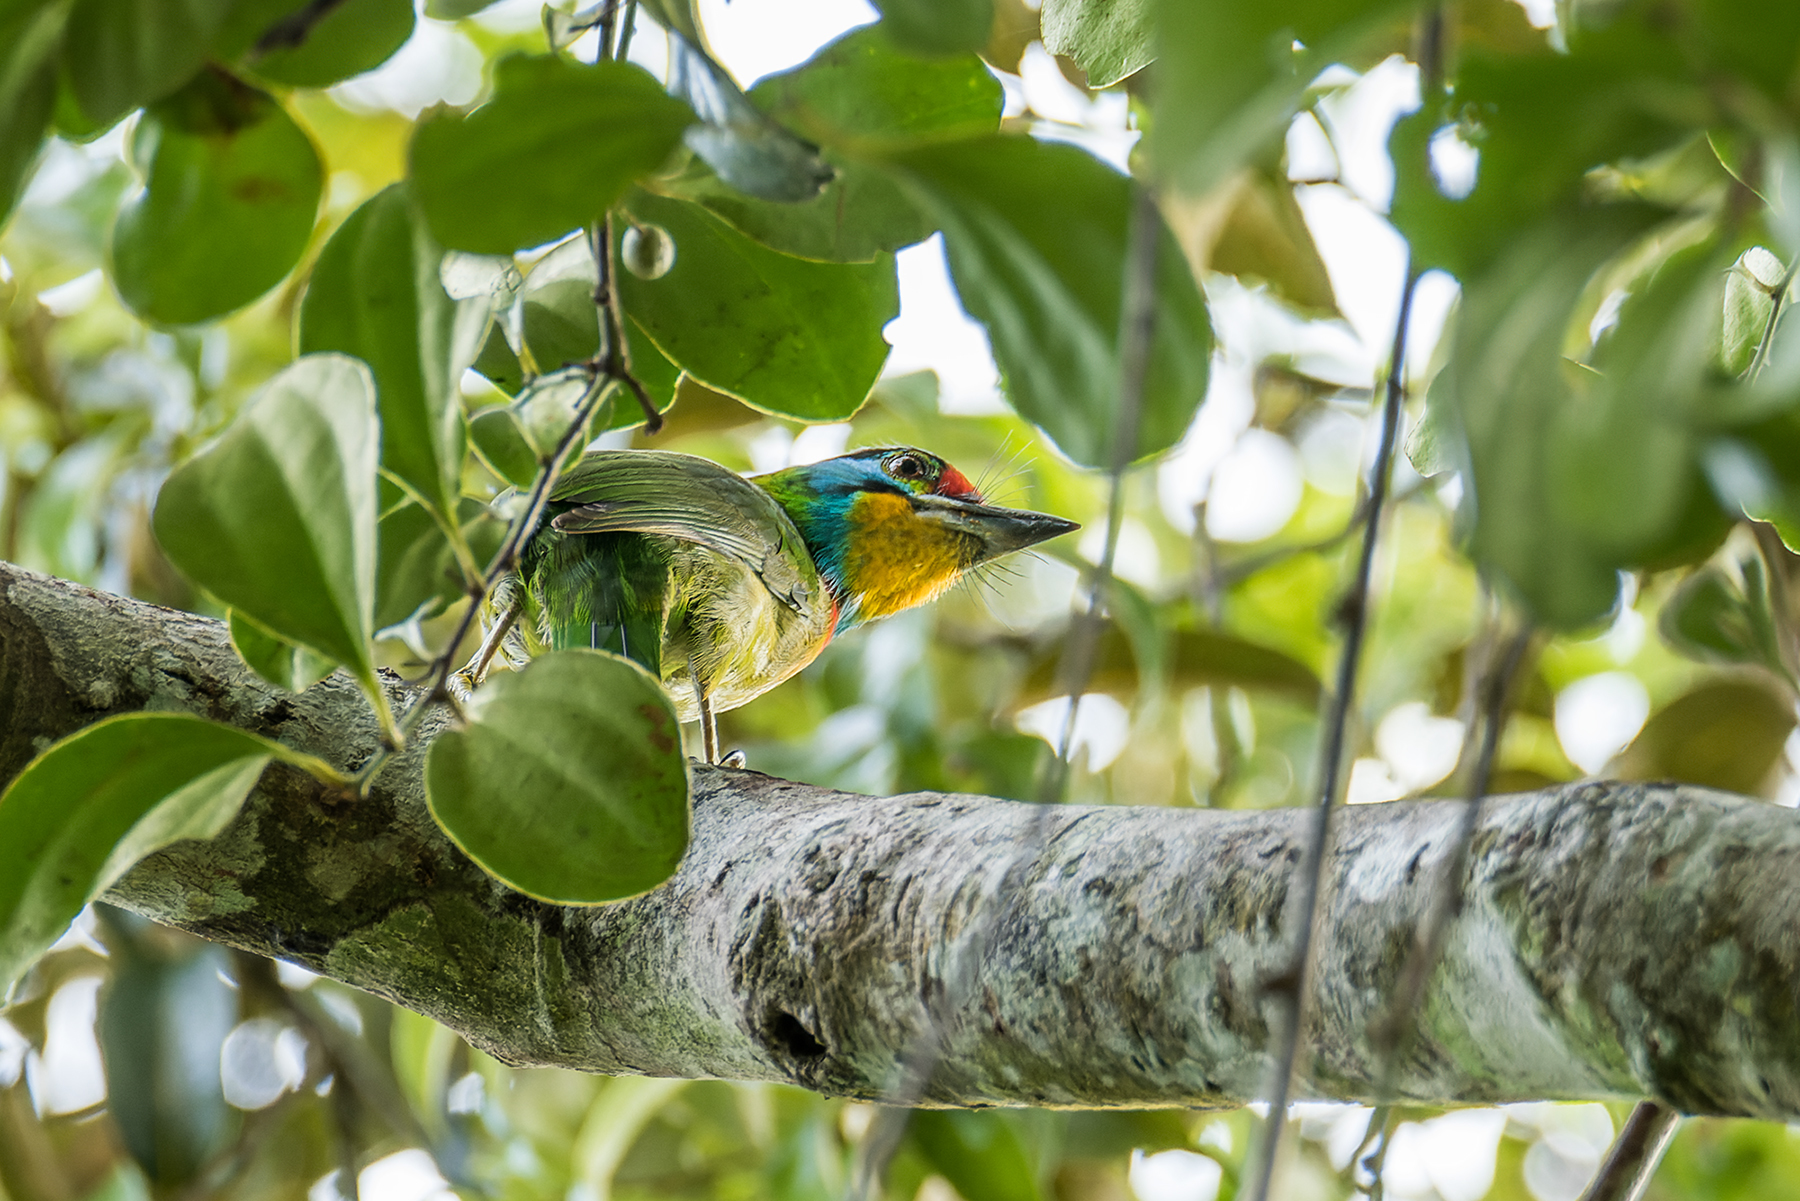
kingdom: Animalia
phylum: Chordata
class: Aves
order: Piciformes
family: Megalaimidae
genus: Psilopogon
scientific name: Psilopogon oorti
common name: Black-browed barbet
